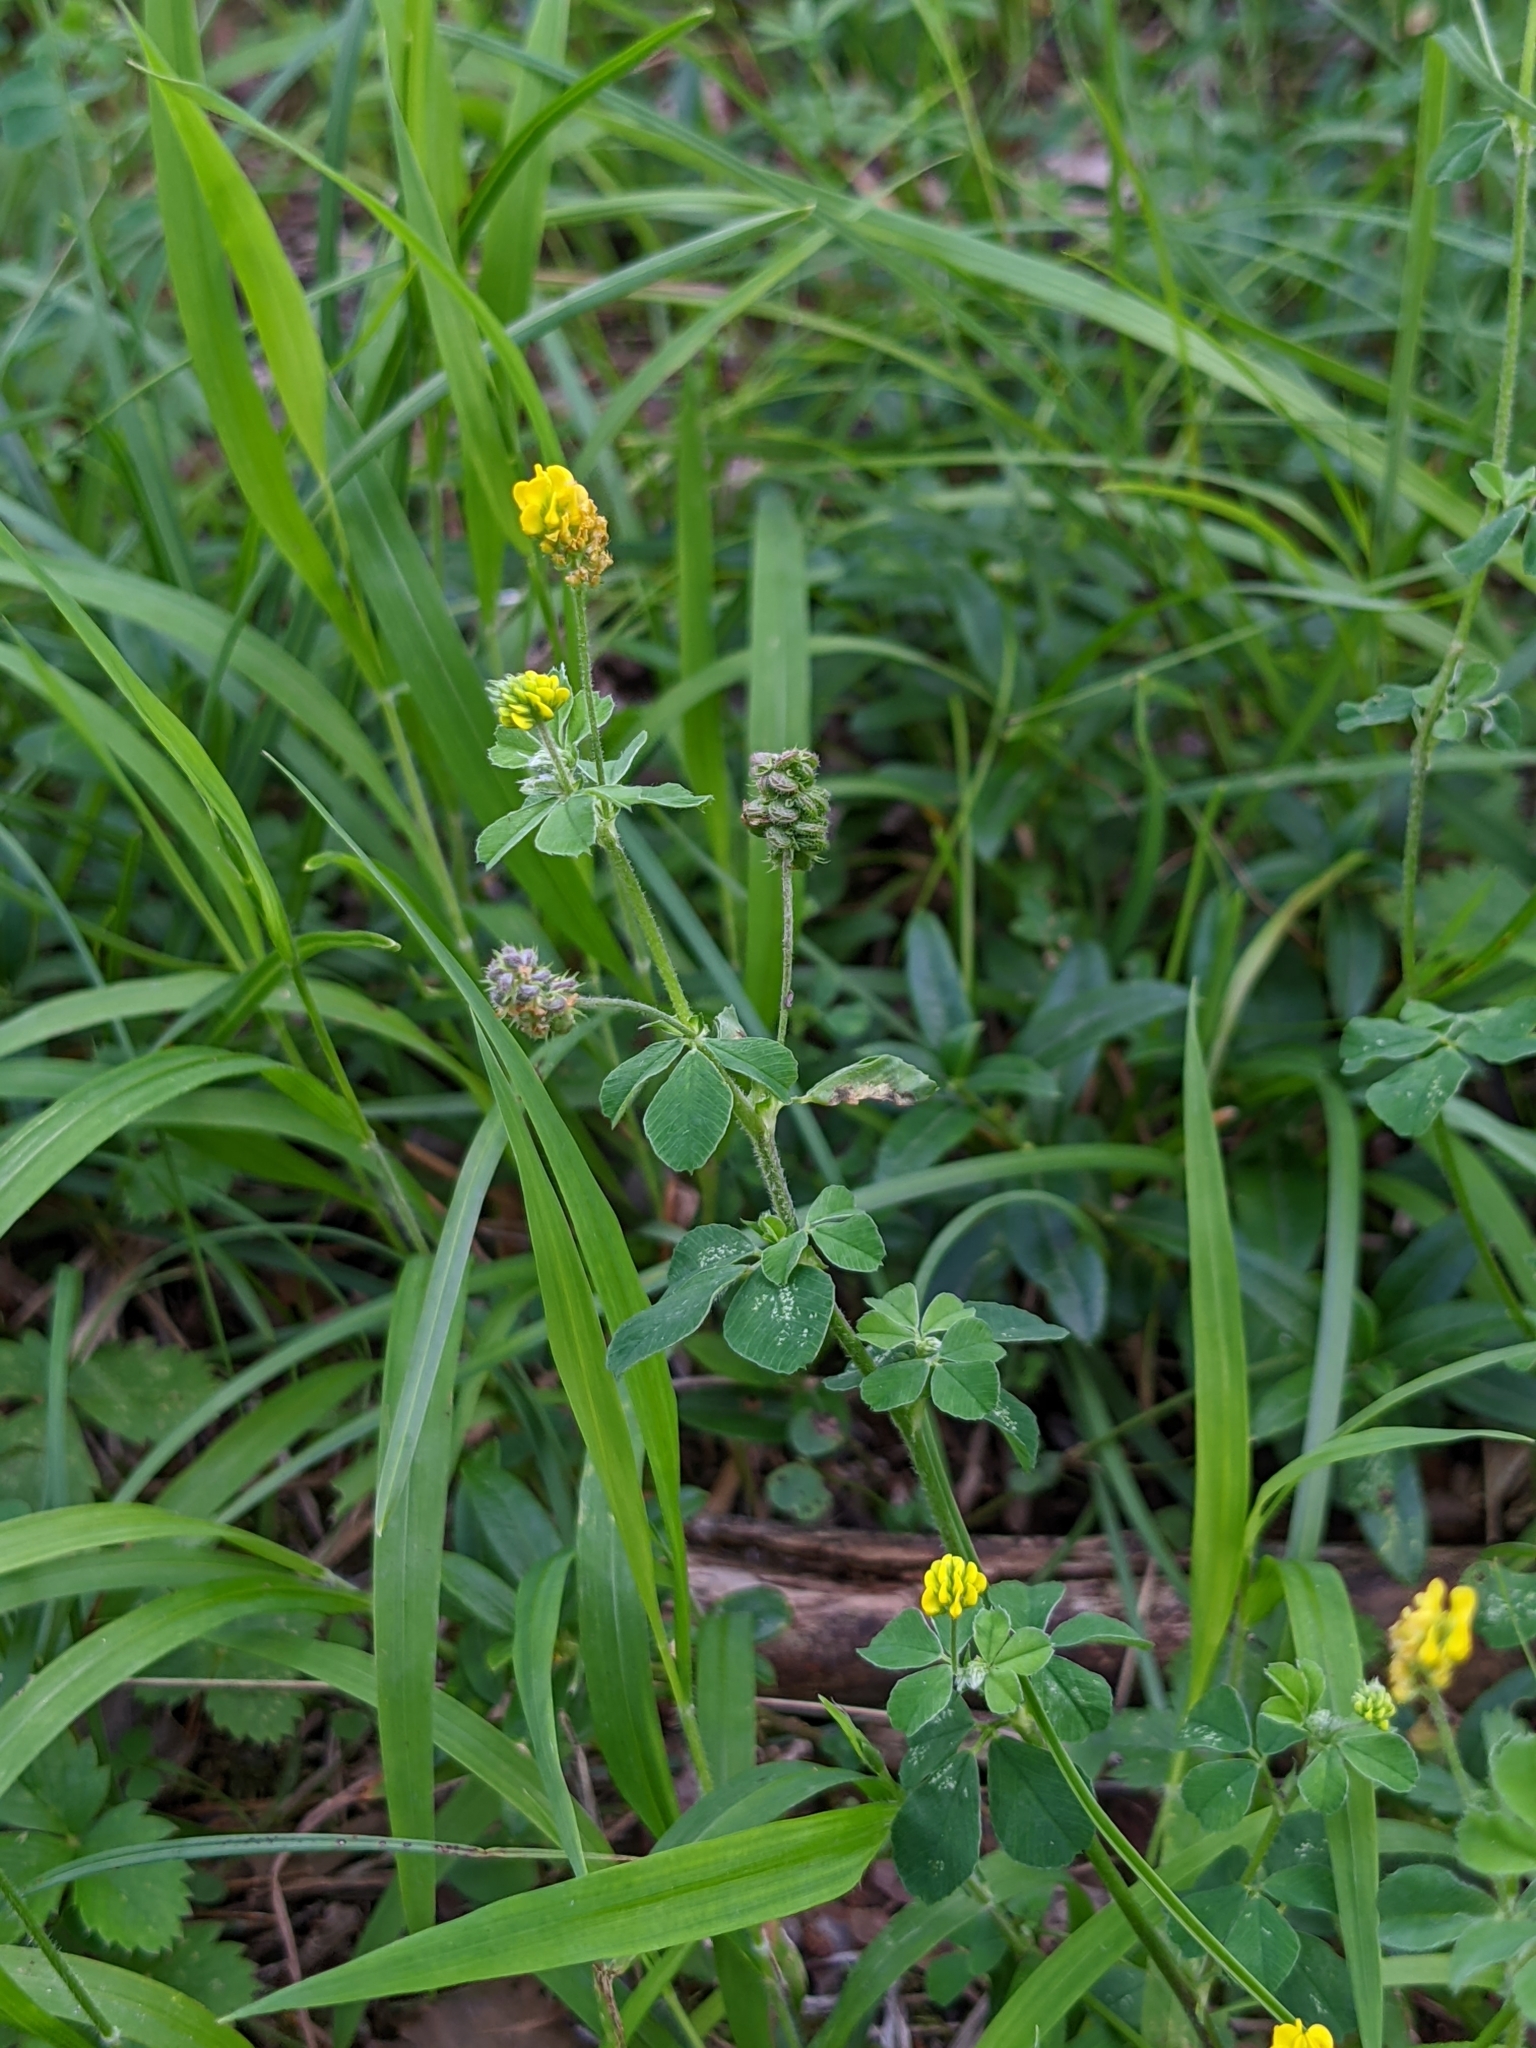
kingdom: Plantae
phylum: Tracheophyta
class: Magnoliopsida
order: Fabales
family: Fabaceae
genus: Medicago
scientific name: Medicago lupulina
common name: Black medick
